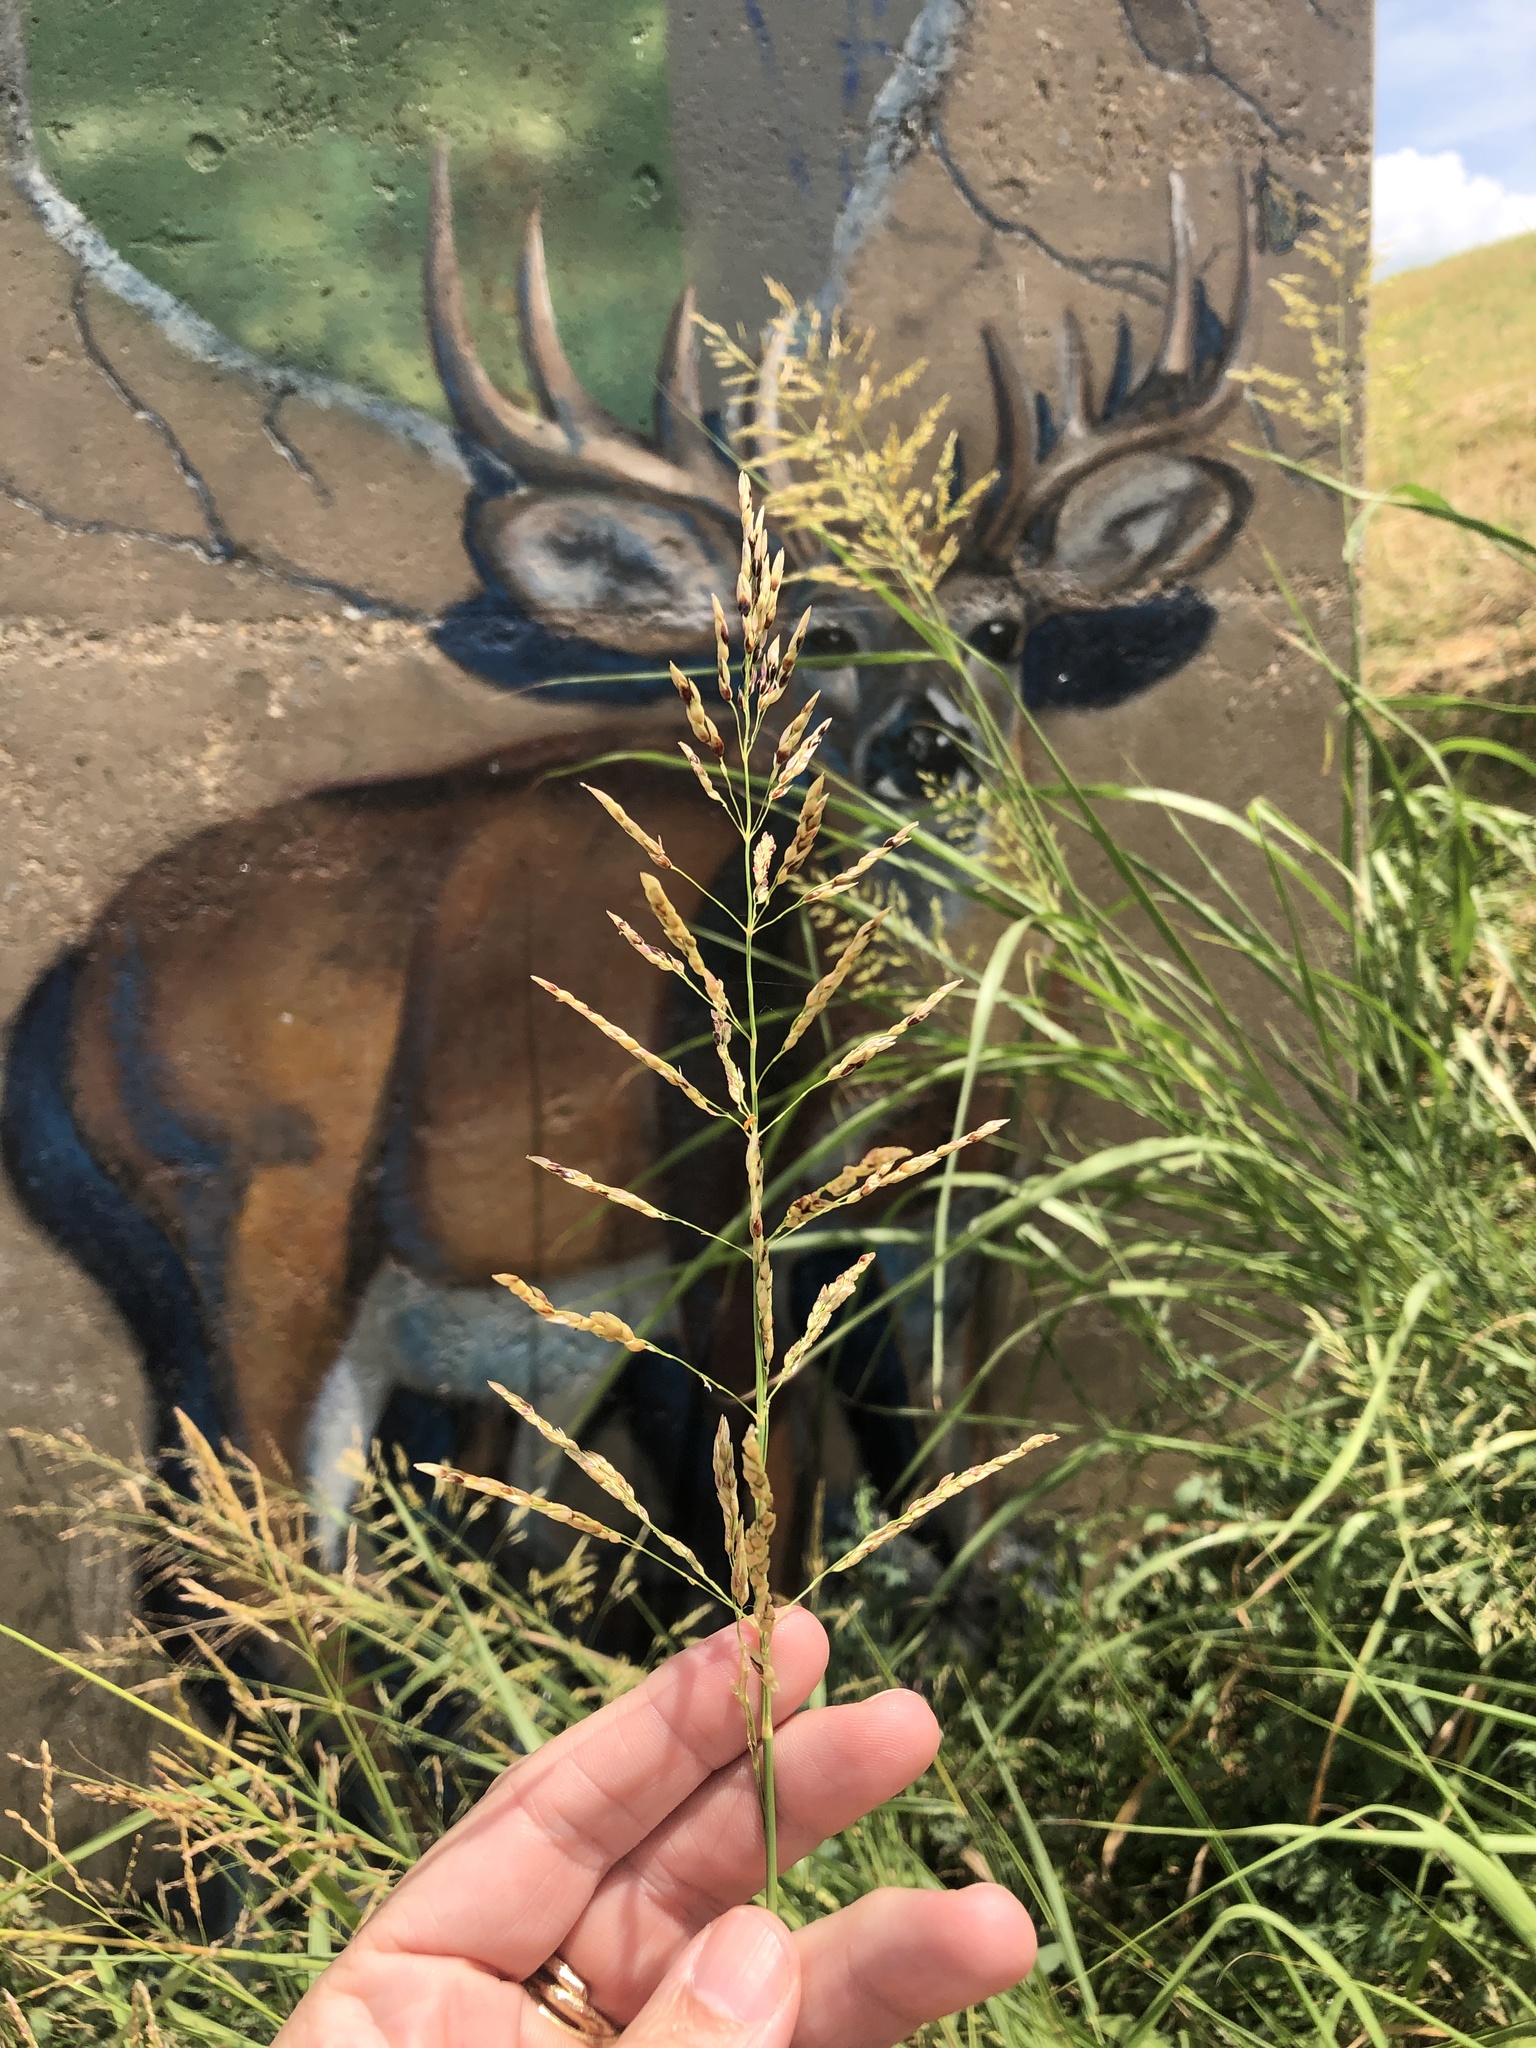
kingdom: Plantae
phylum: Tracheophyta
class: Liliopsida
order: Poales
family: Poaceae
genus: Sorghum
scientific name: Sorghum halepense
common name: Johnson-grass
